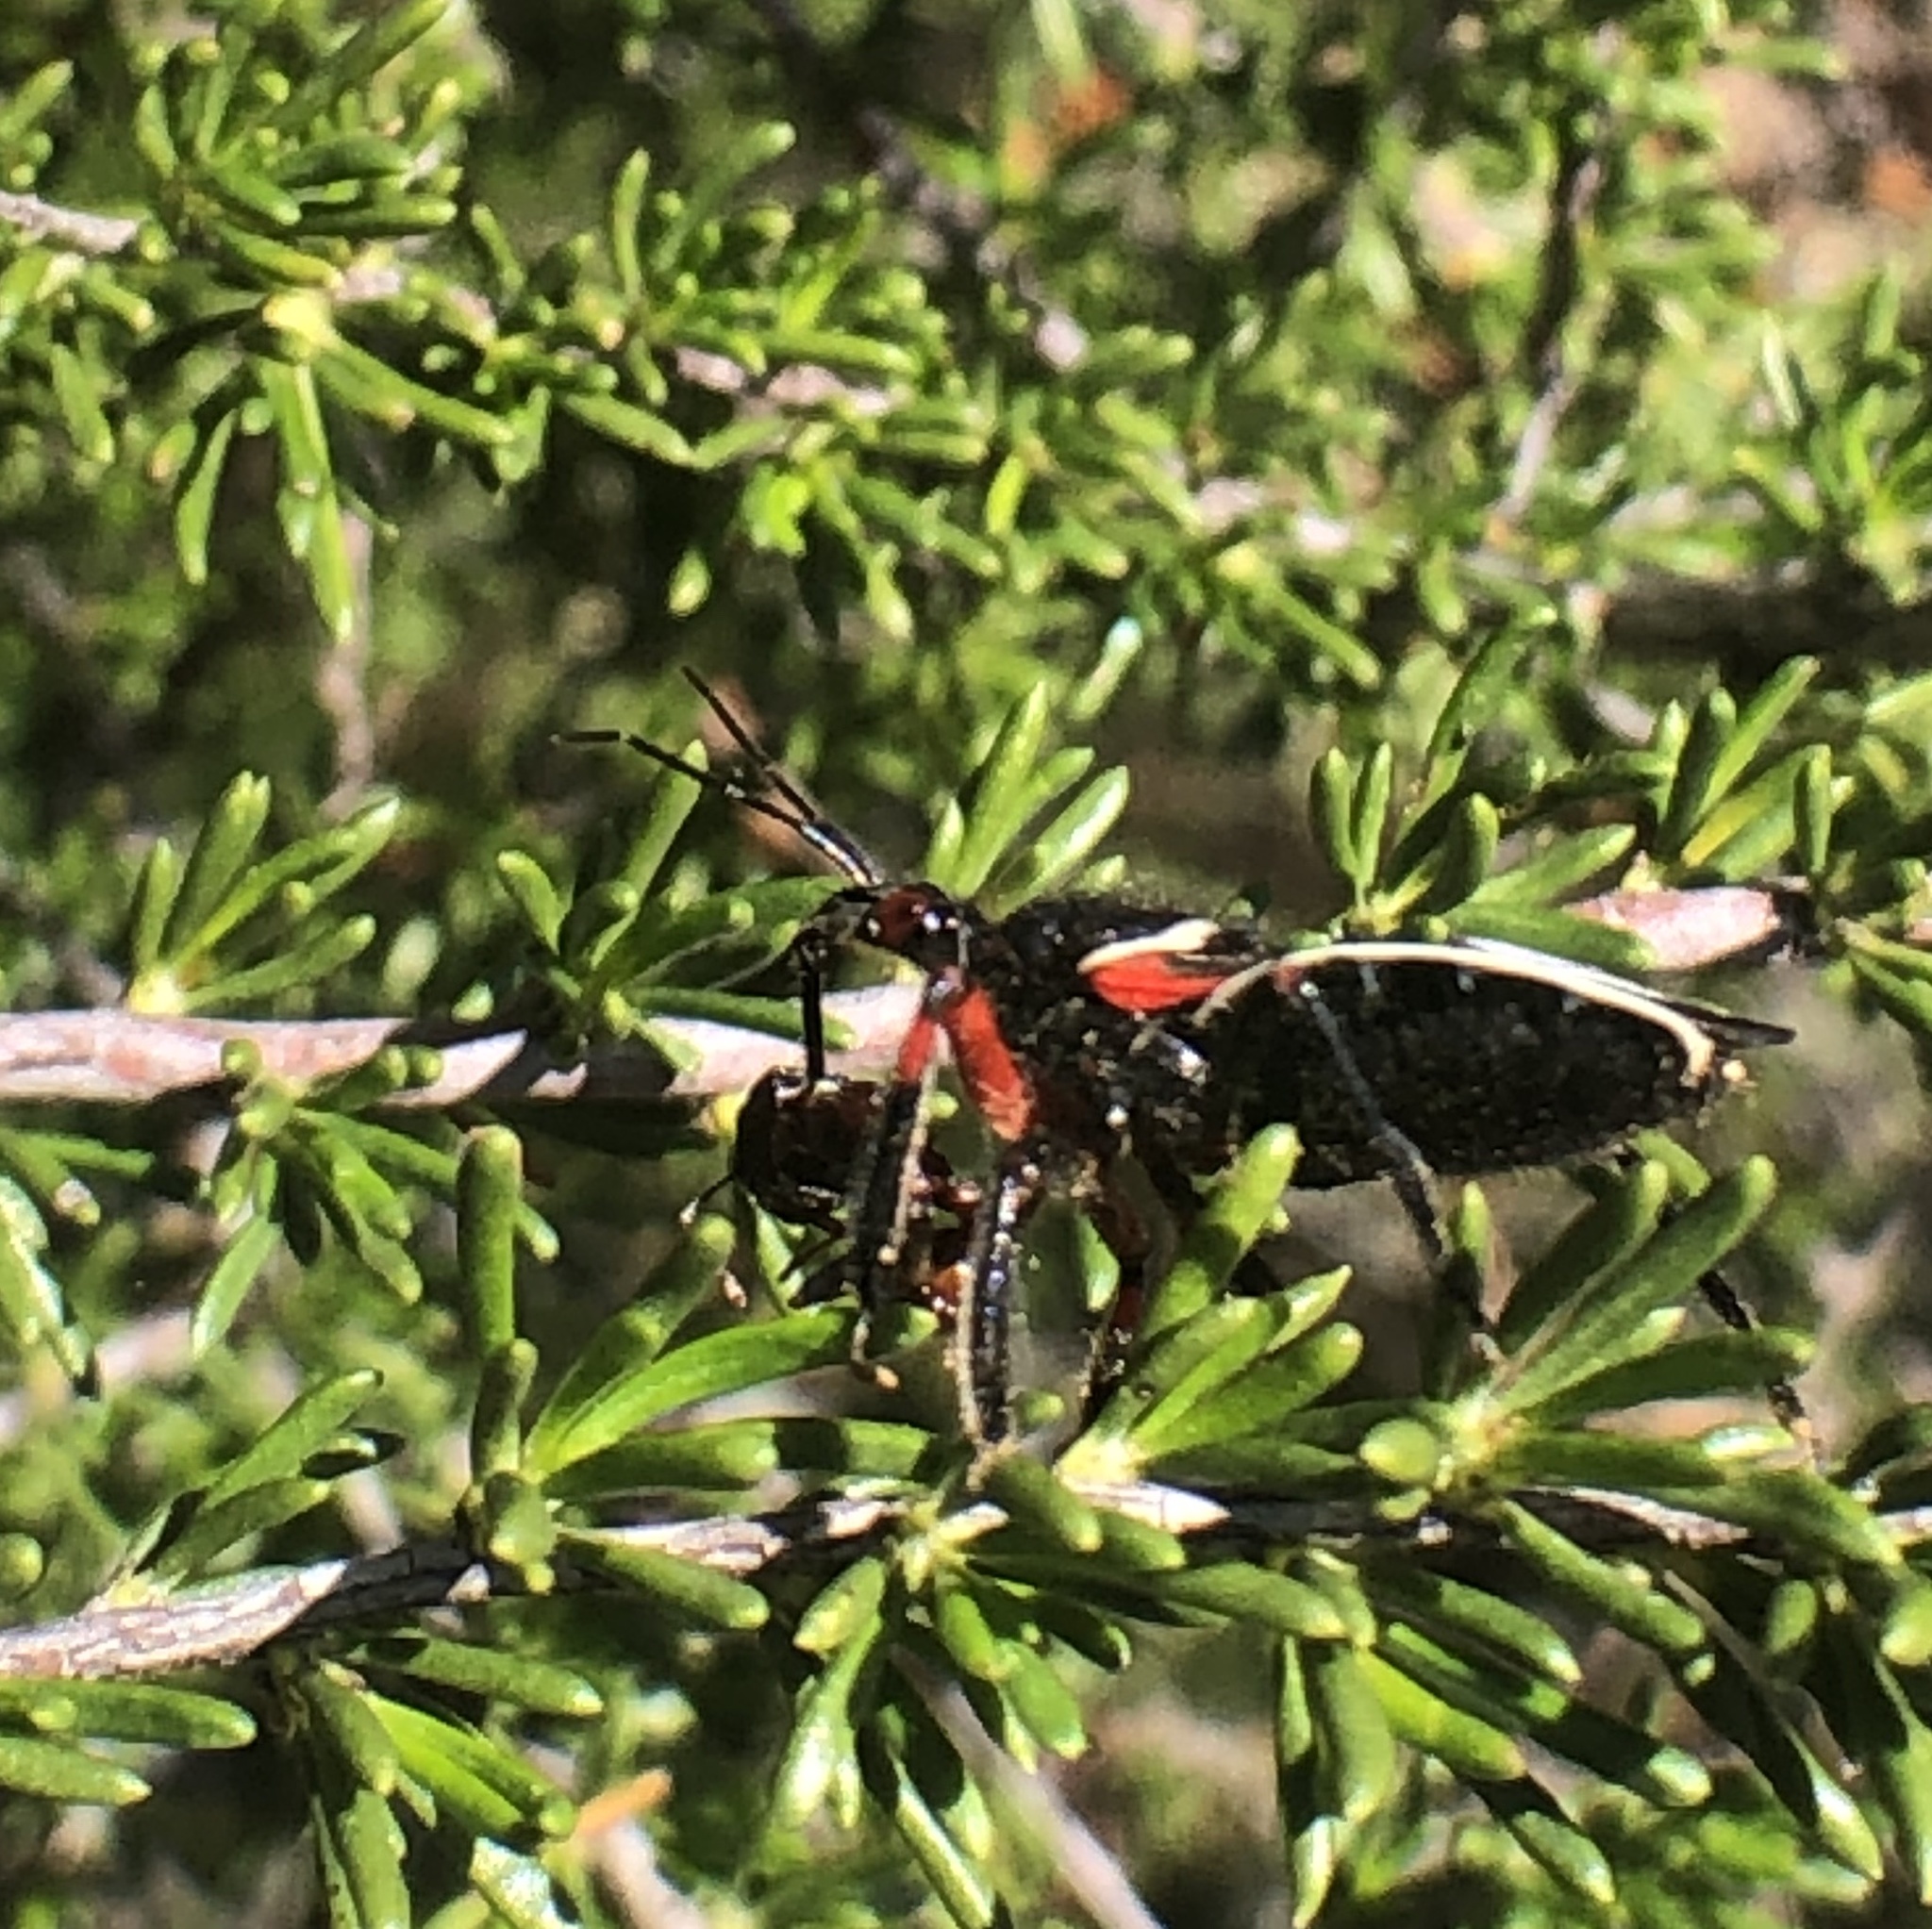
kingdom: Animalia
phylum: Arthropoda
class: Insecta
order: Hemiptera
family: Reduviidae
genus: Apiomerus
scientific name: Apiomerus californicus
